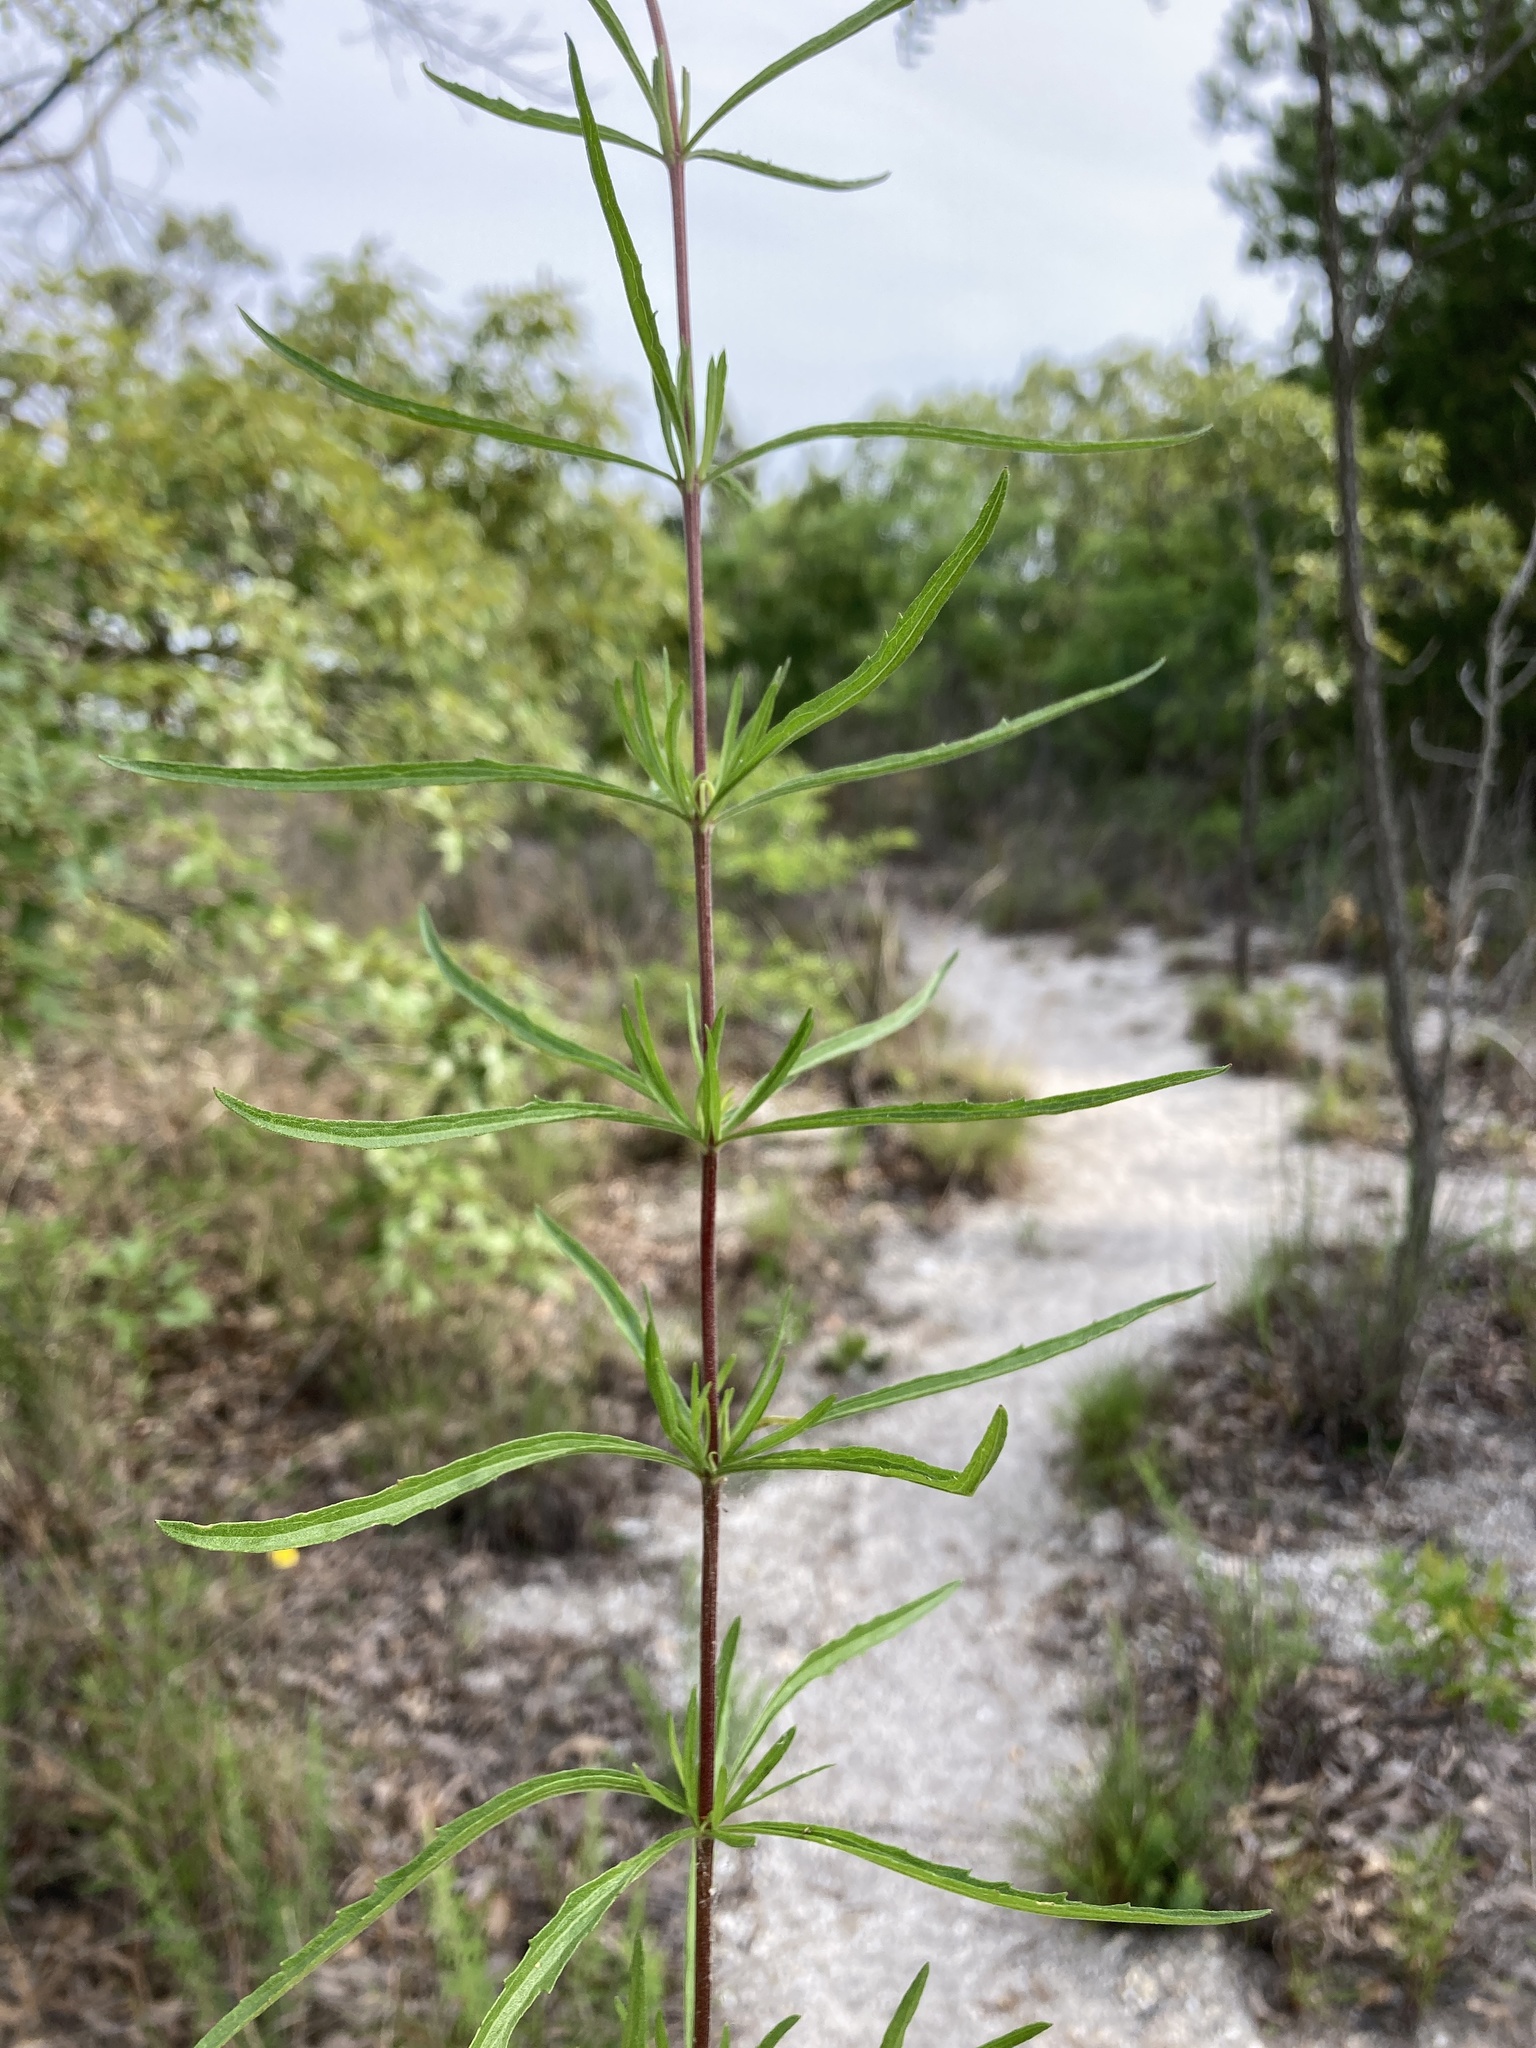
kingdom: Plantae
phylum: Tracheophyta
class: Magnoliopsida
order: Asterales
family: Asteraceae
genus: Eupatorium
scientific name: Eupatorium torreyanum
